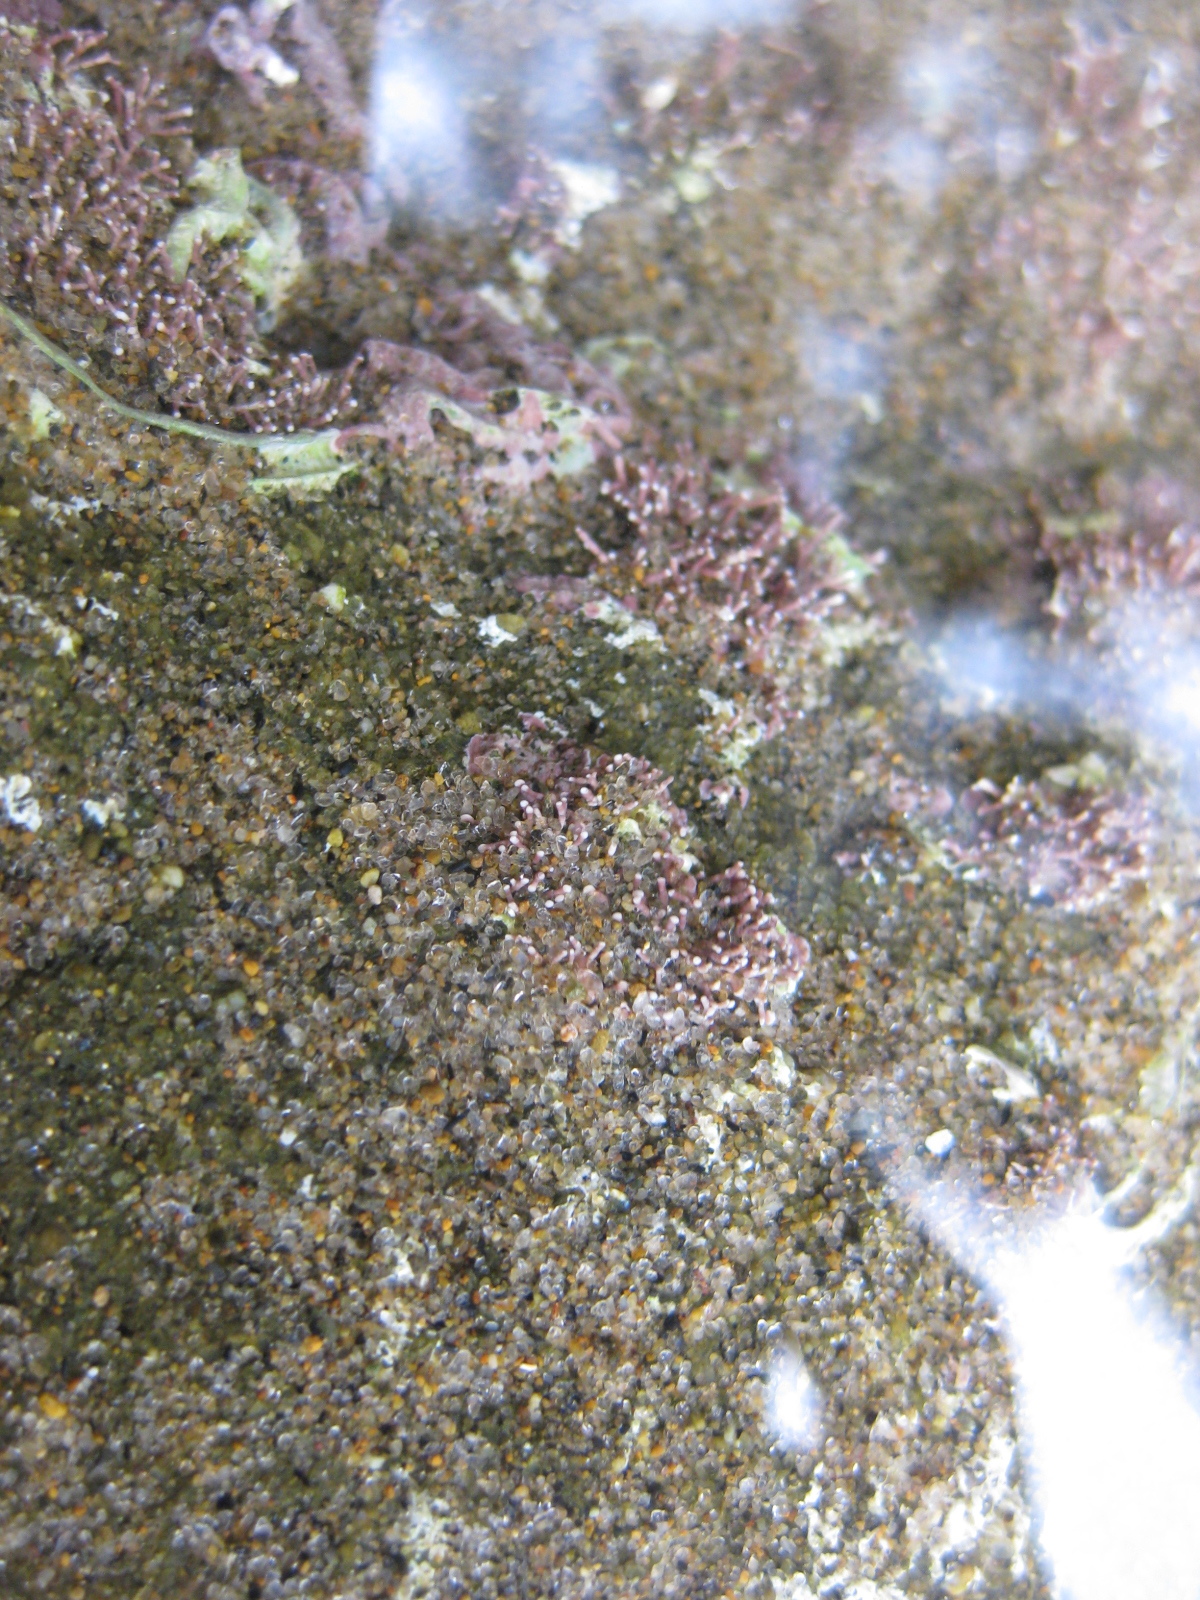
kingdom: Plantae
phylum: Rhodophyta
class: Florideophyceae
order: Corallinales
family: Corallinaceae
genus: Corallina
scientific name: Corallina officinalis
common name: Coral weed
